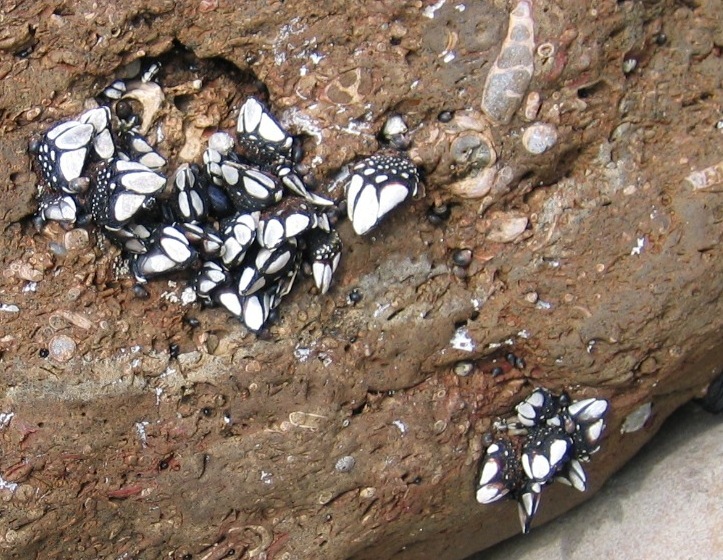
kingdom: Animalia
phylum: Arthropoda
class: Maxillopoda
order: Pedunculata
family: Calanticidae
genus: Calantica
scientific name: Calantica spinosa
